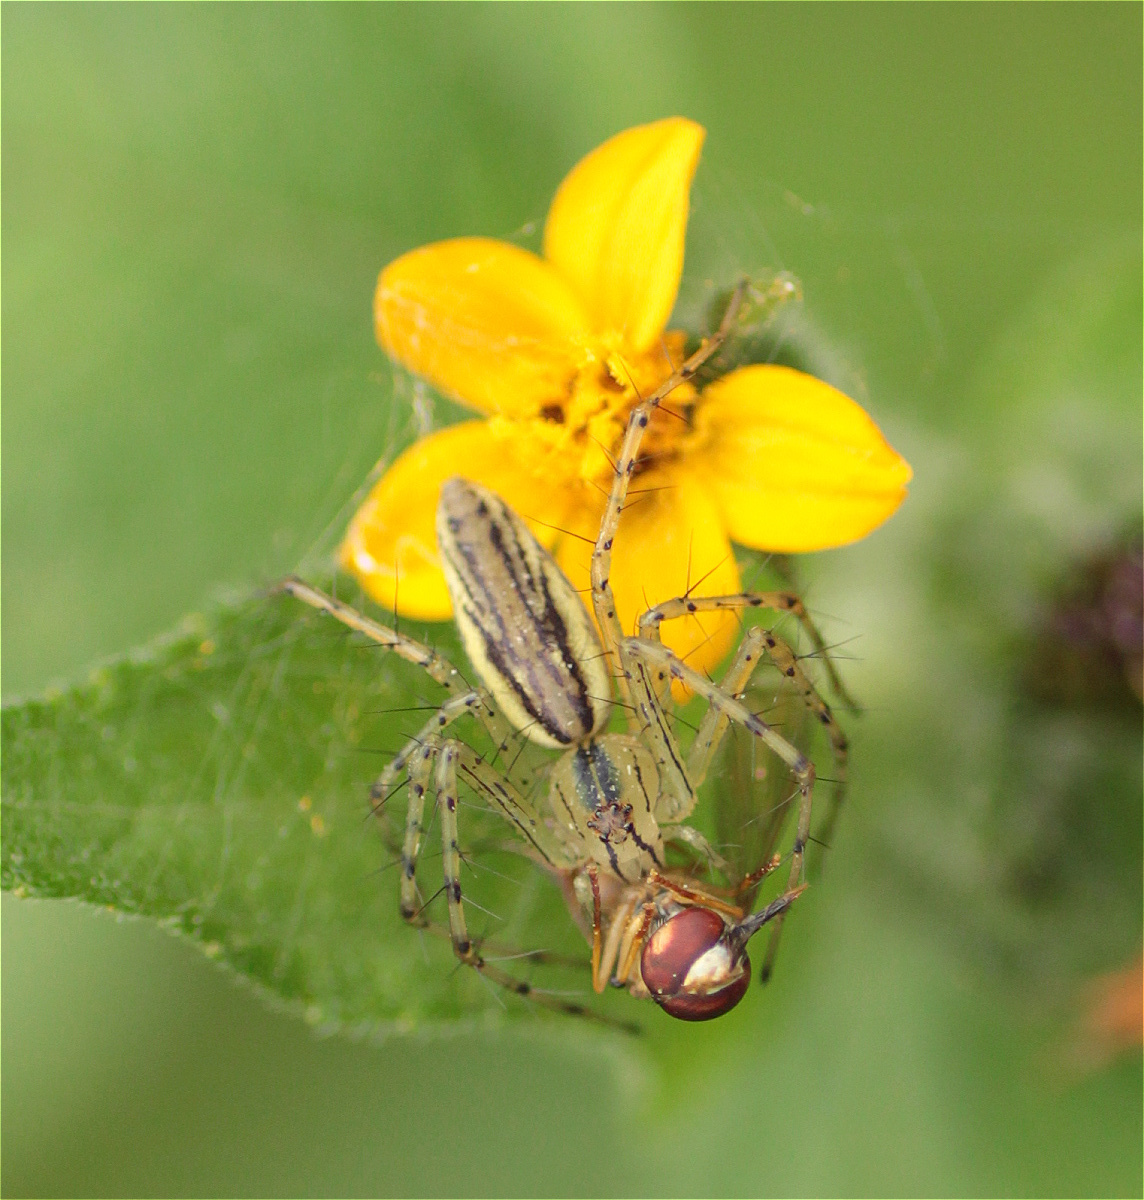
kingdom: Animalia
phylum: Arthropoda
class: Arachnida
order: Araneae
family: Oxyopidae
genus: Peucetia
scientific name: Peucetia rubrolineata
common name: Lynx spiders
